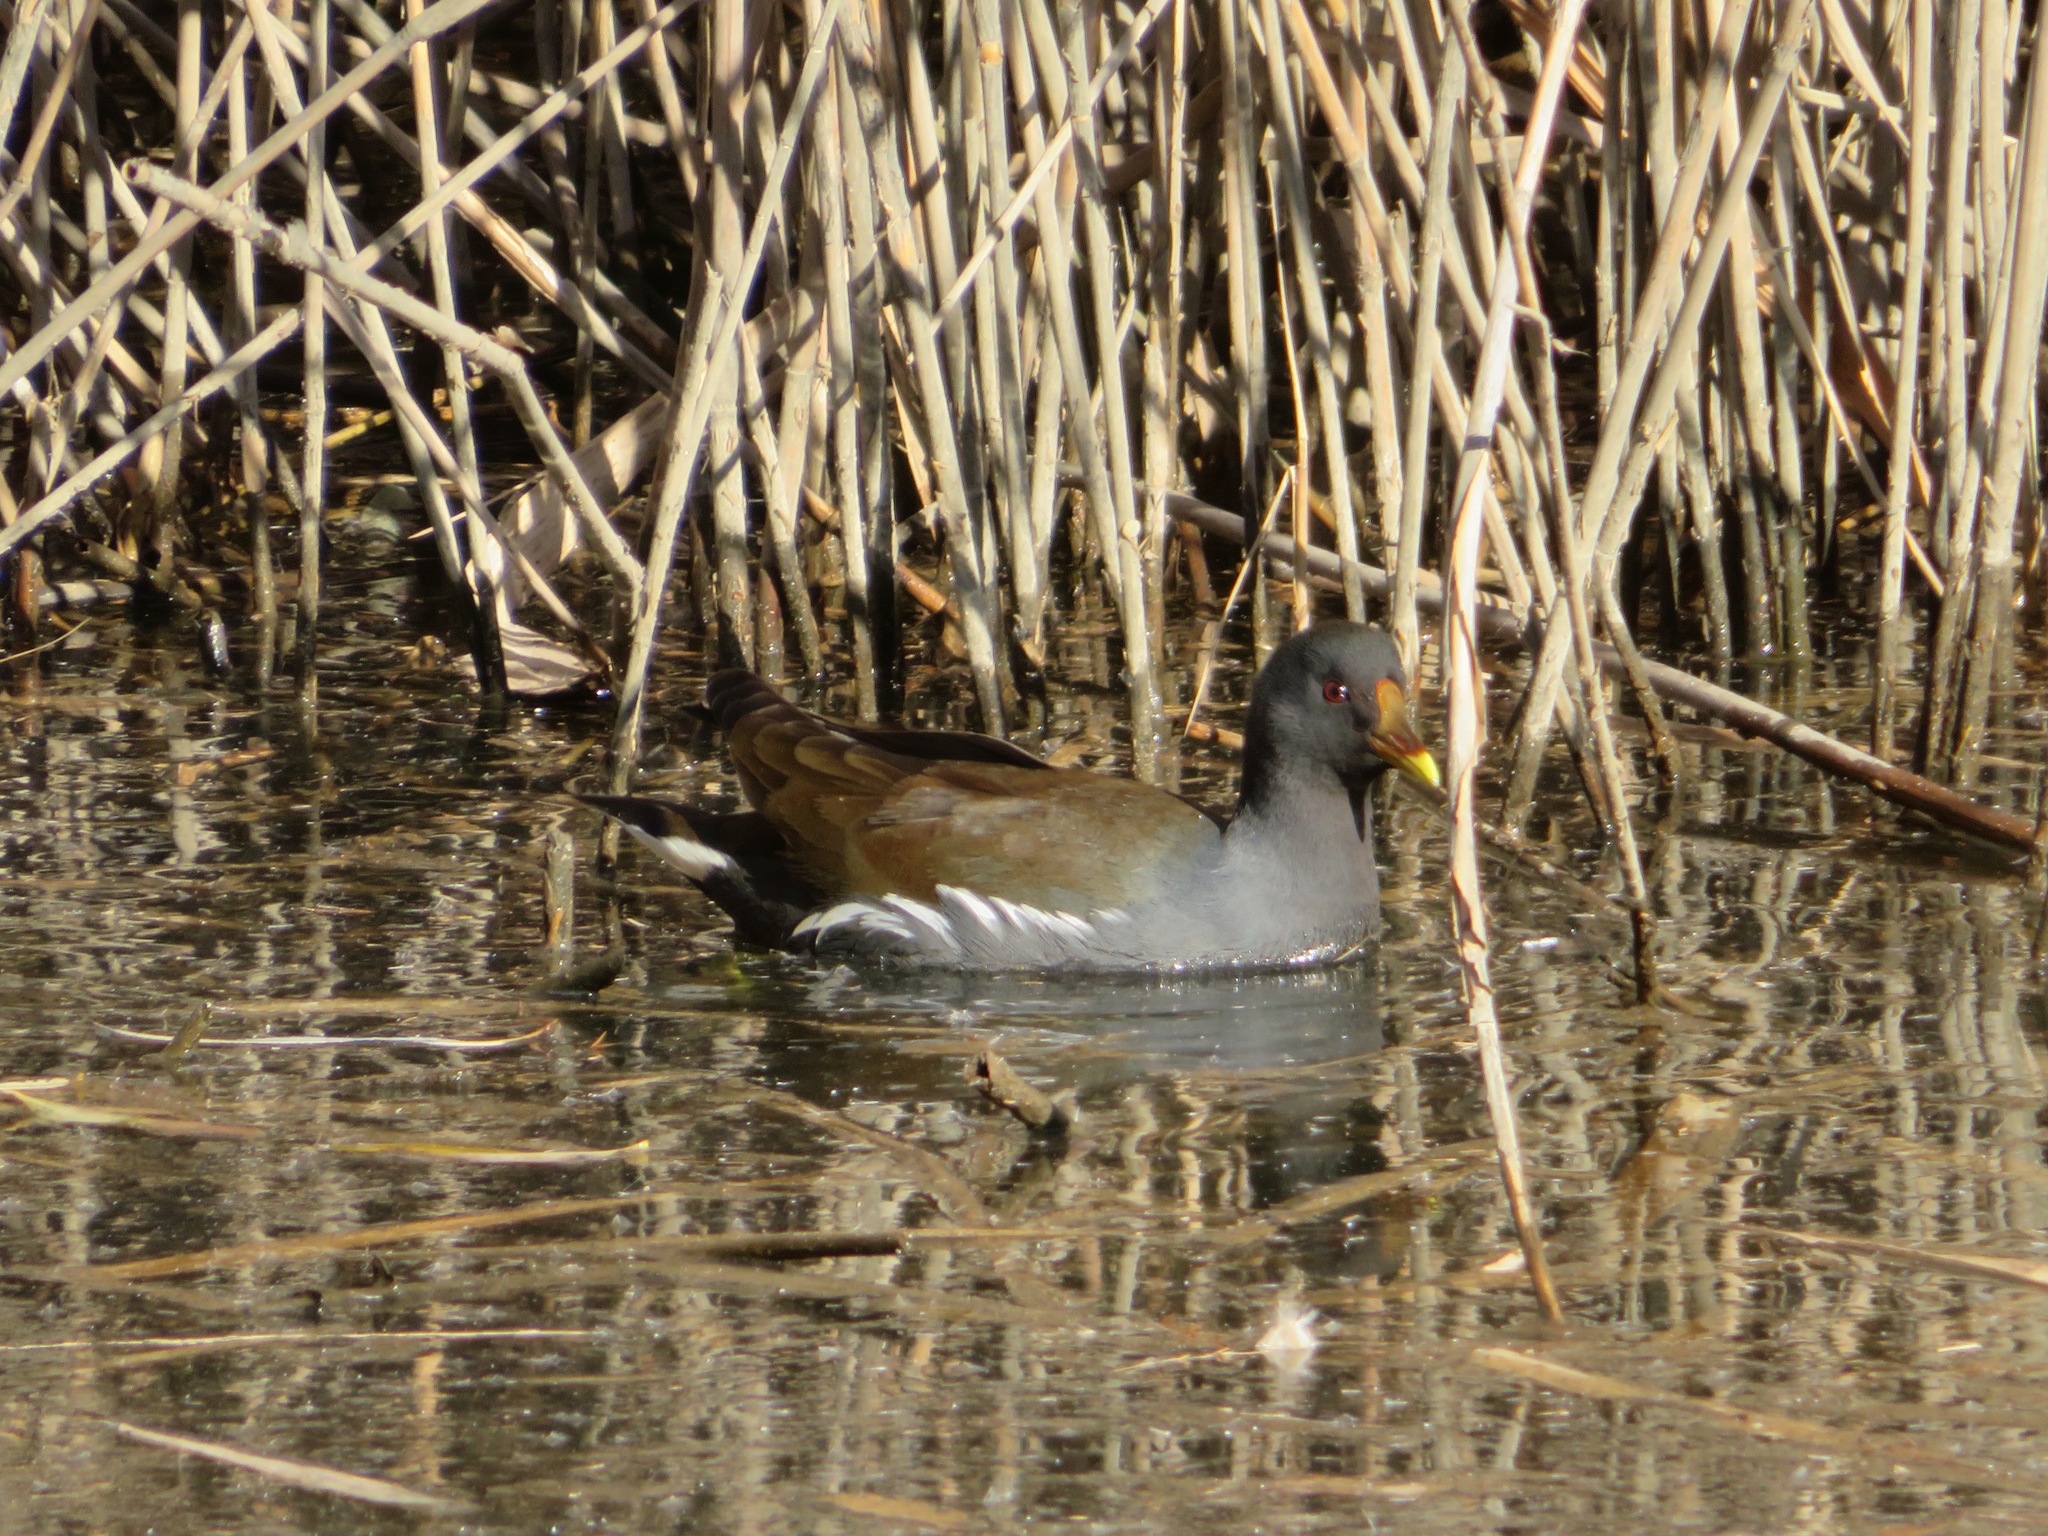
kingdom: Animalia
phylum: Chordata
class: Aves
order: Gruiformes
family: Rallidae
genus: Gallinula
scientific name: Gallinula chloropus
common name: Common moorhen
